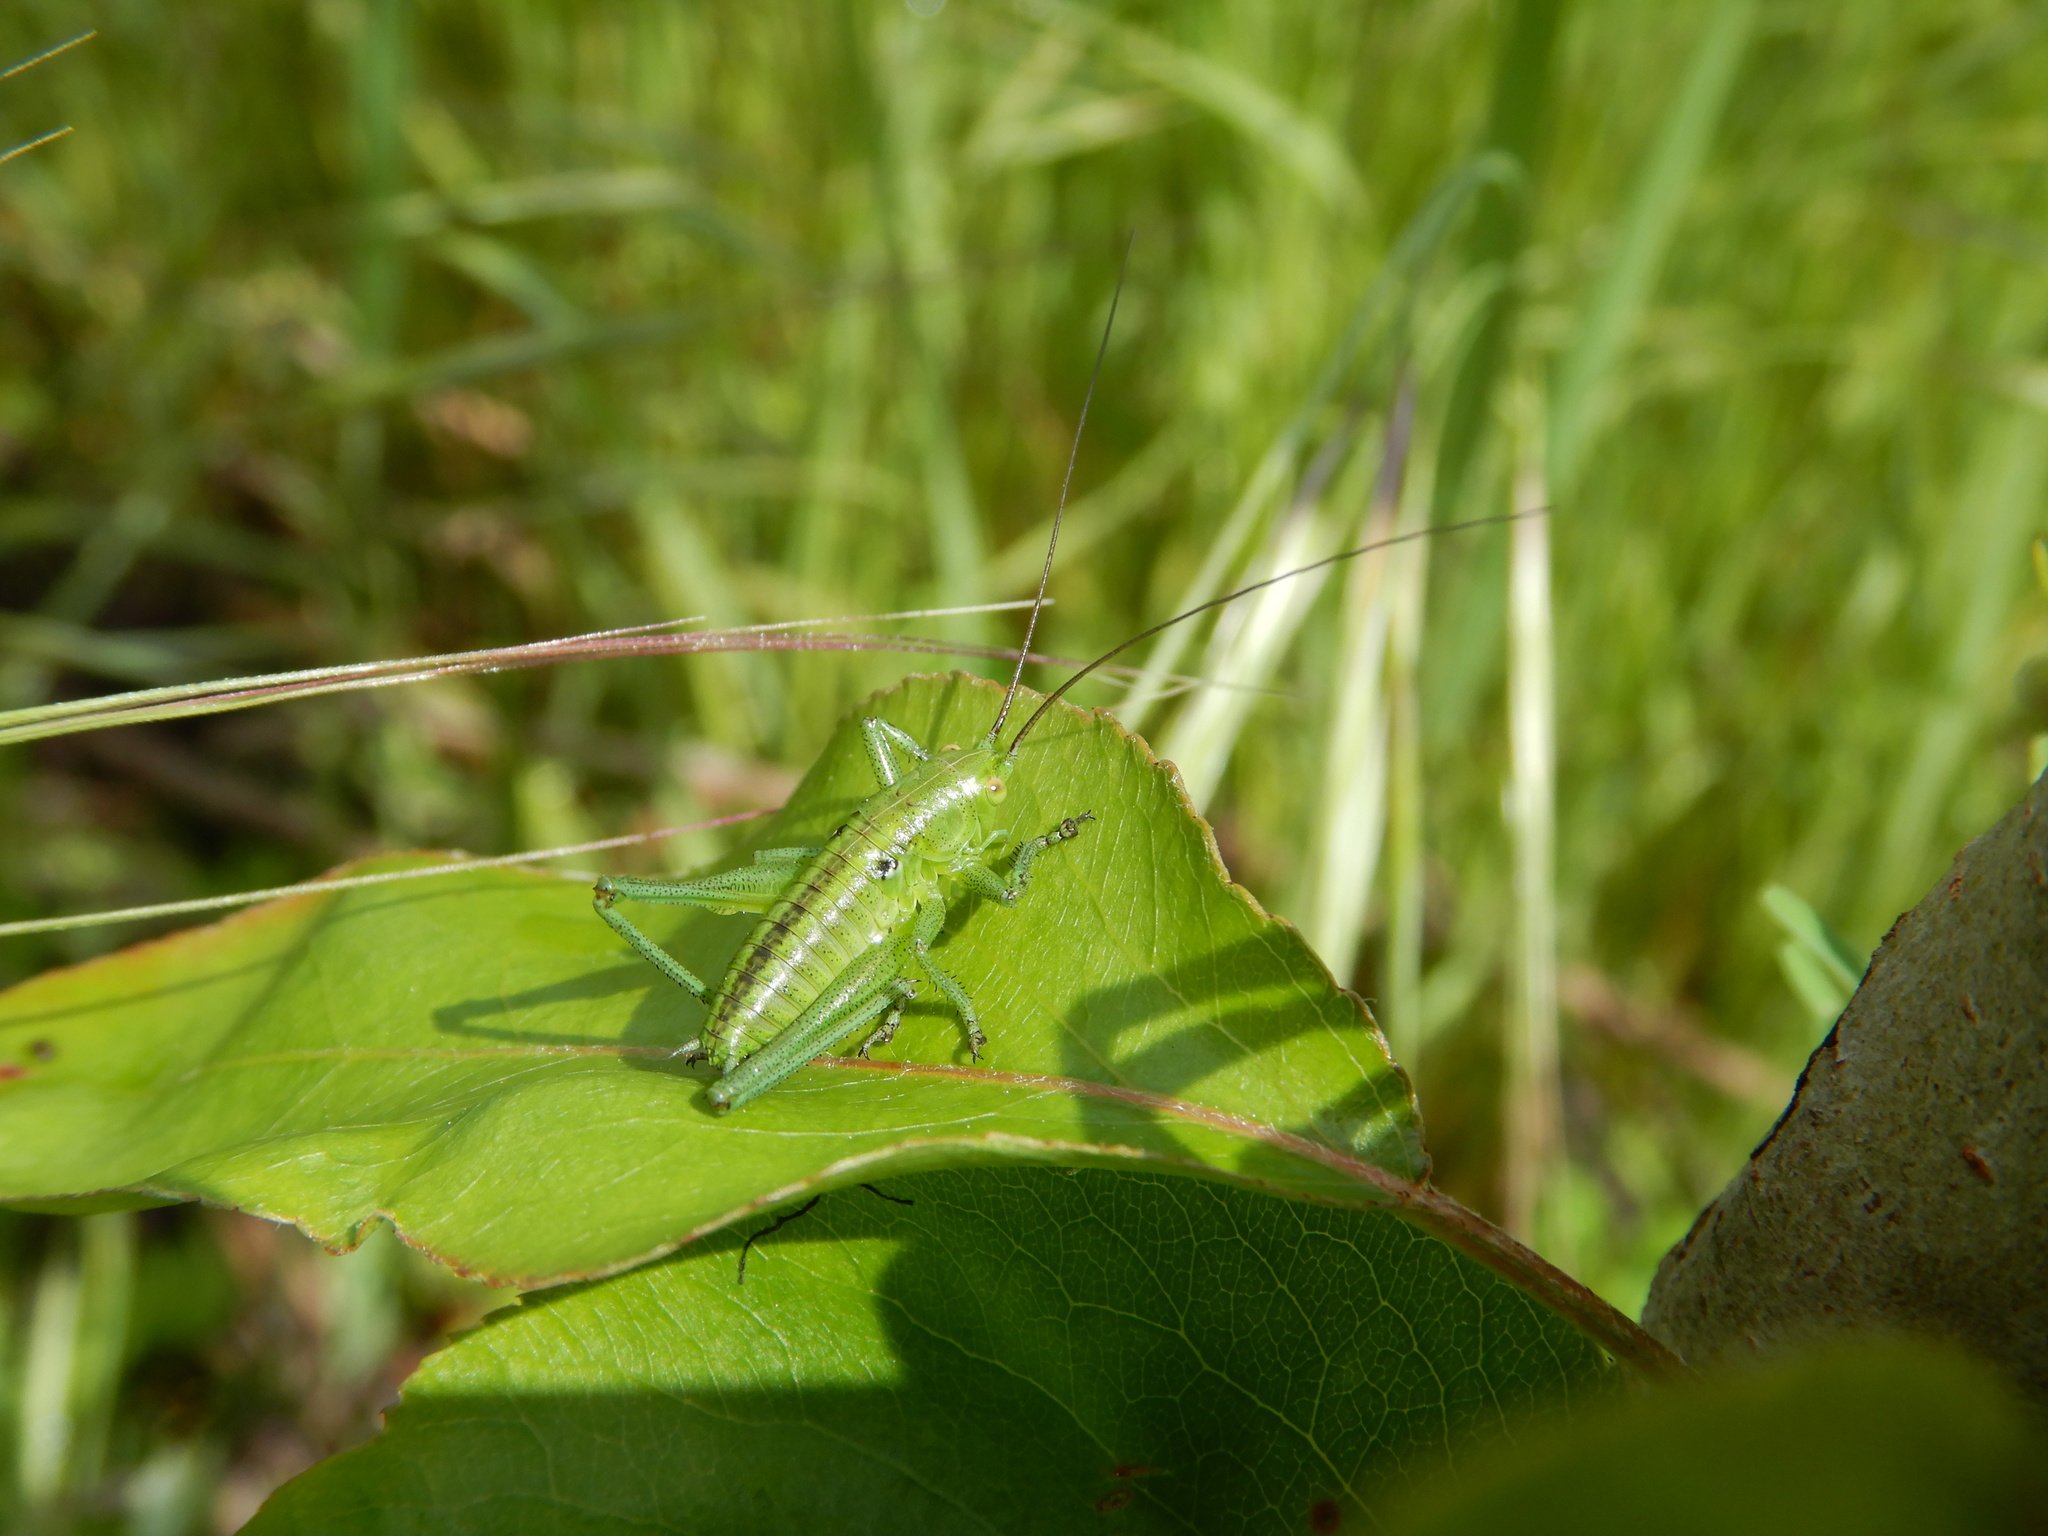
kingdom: Animalia
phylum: Arthropoda
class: Insecta
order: Orthoptera
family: Tettigoniidae
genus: Tettigonia
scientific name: Tettigonia viridissima
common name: Great green bush-cricket
